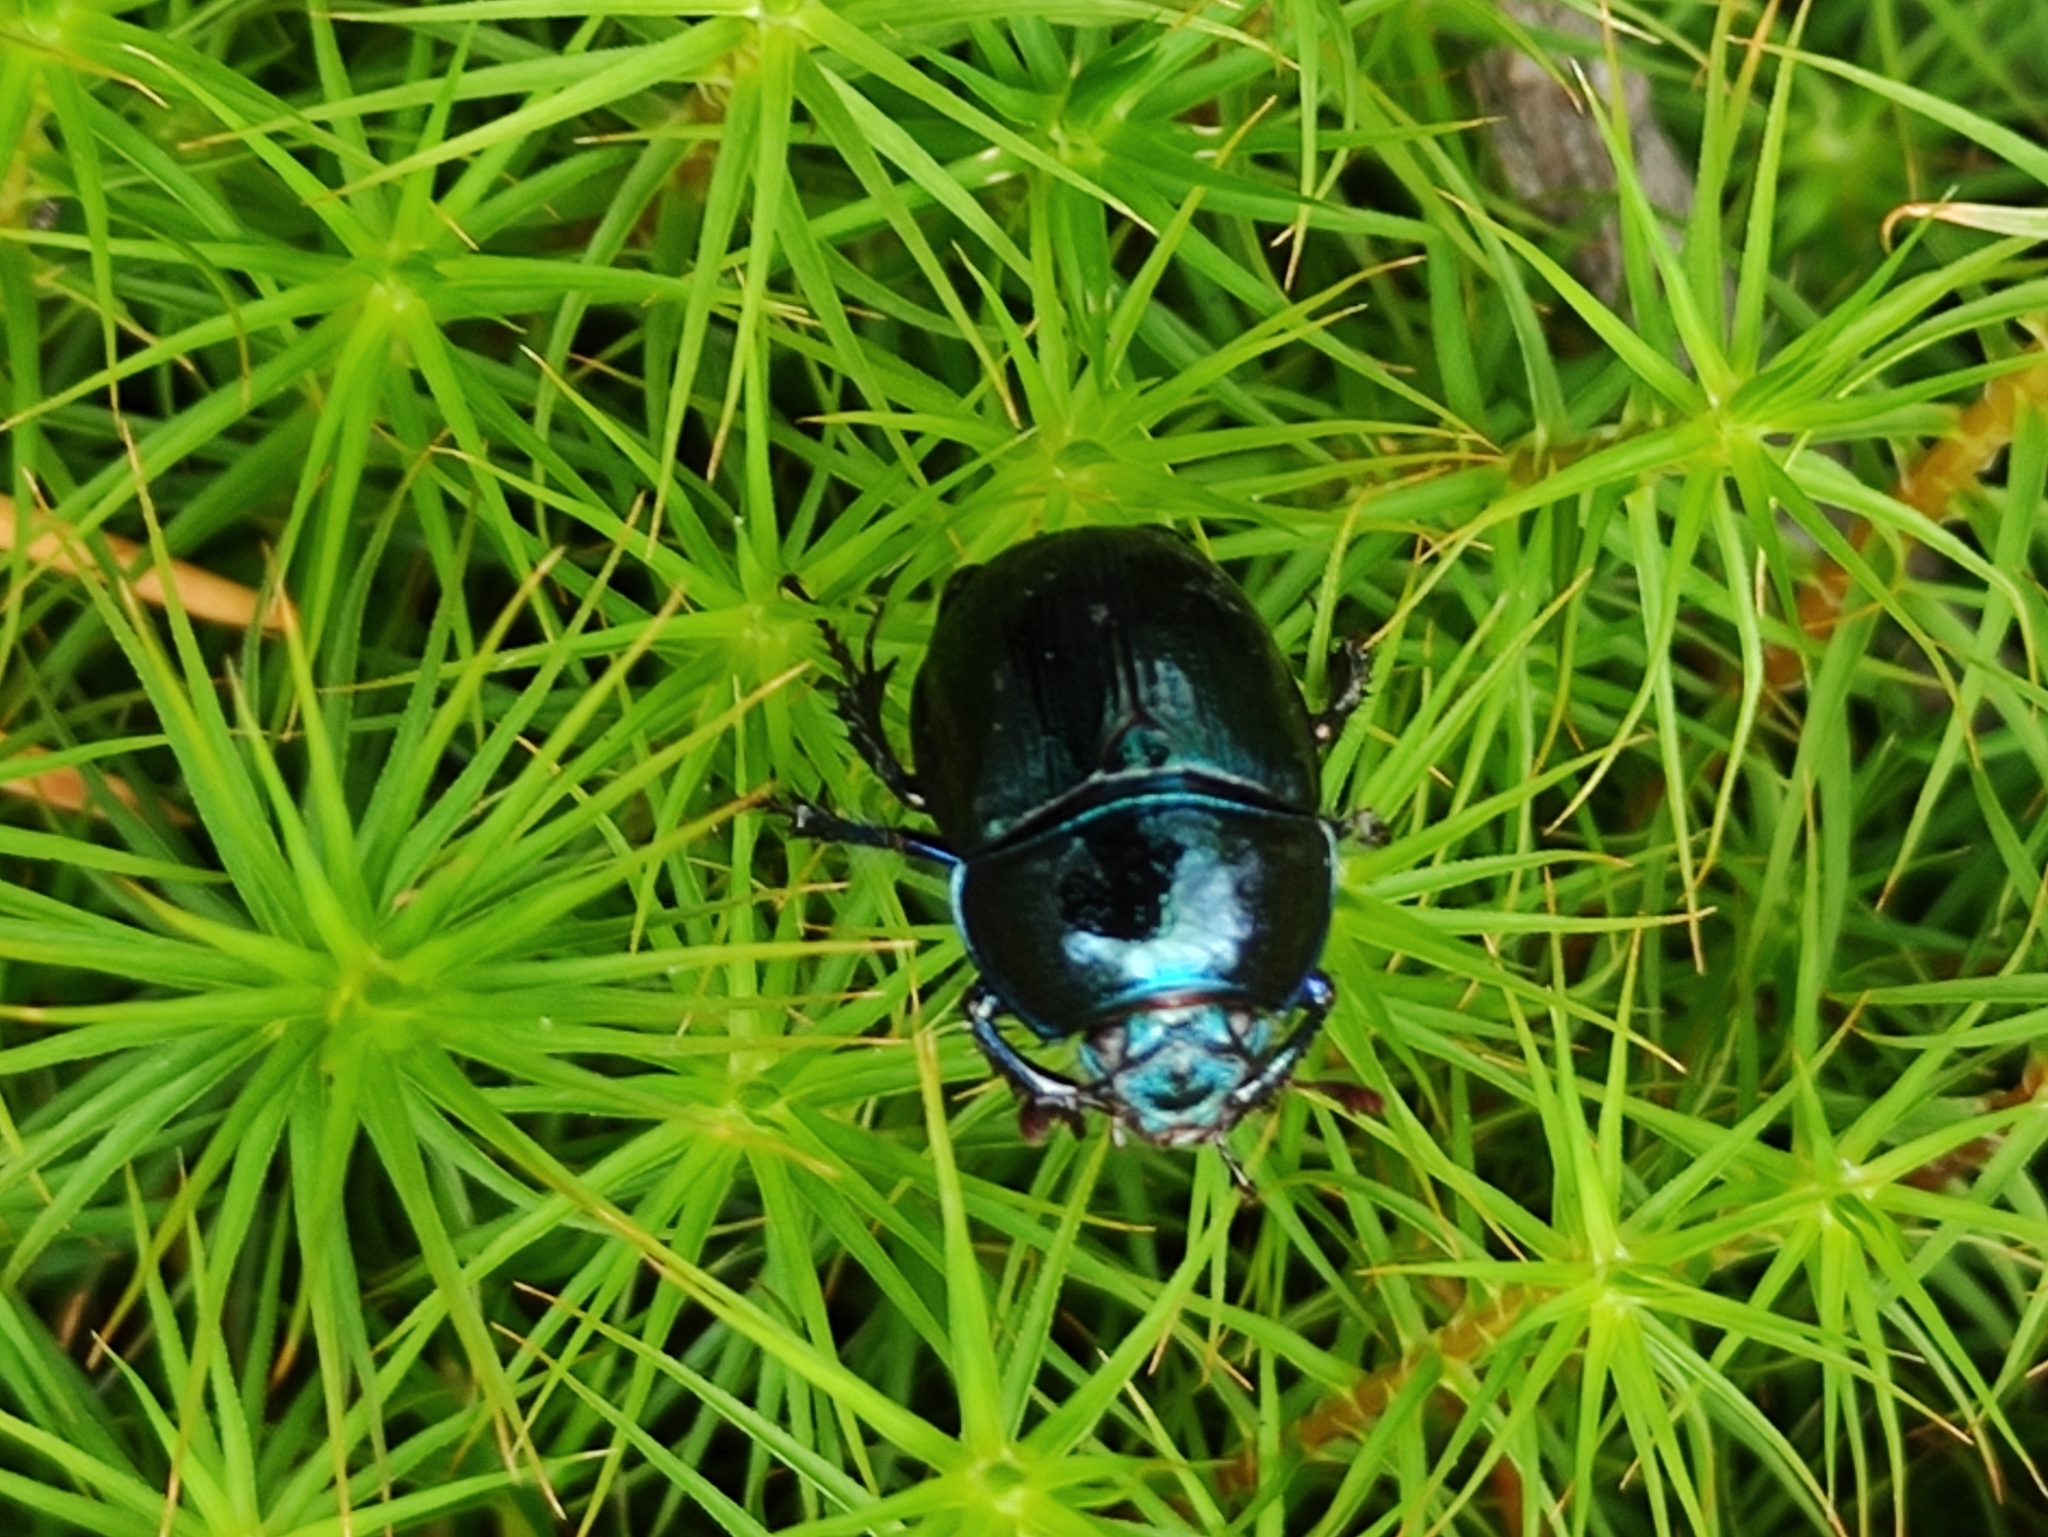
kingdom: Animalia
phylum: Arthropoda
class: Insecta
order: Coleoptera
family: Geotrupidae
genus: Anoplotrupes
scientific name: Anoplotrupes stercorosus
